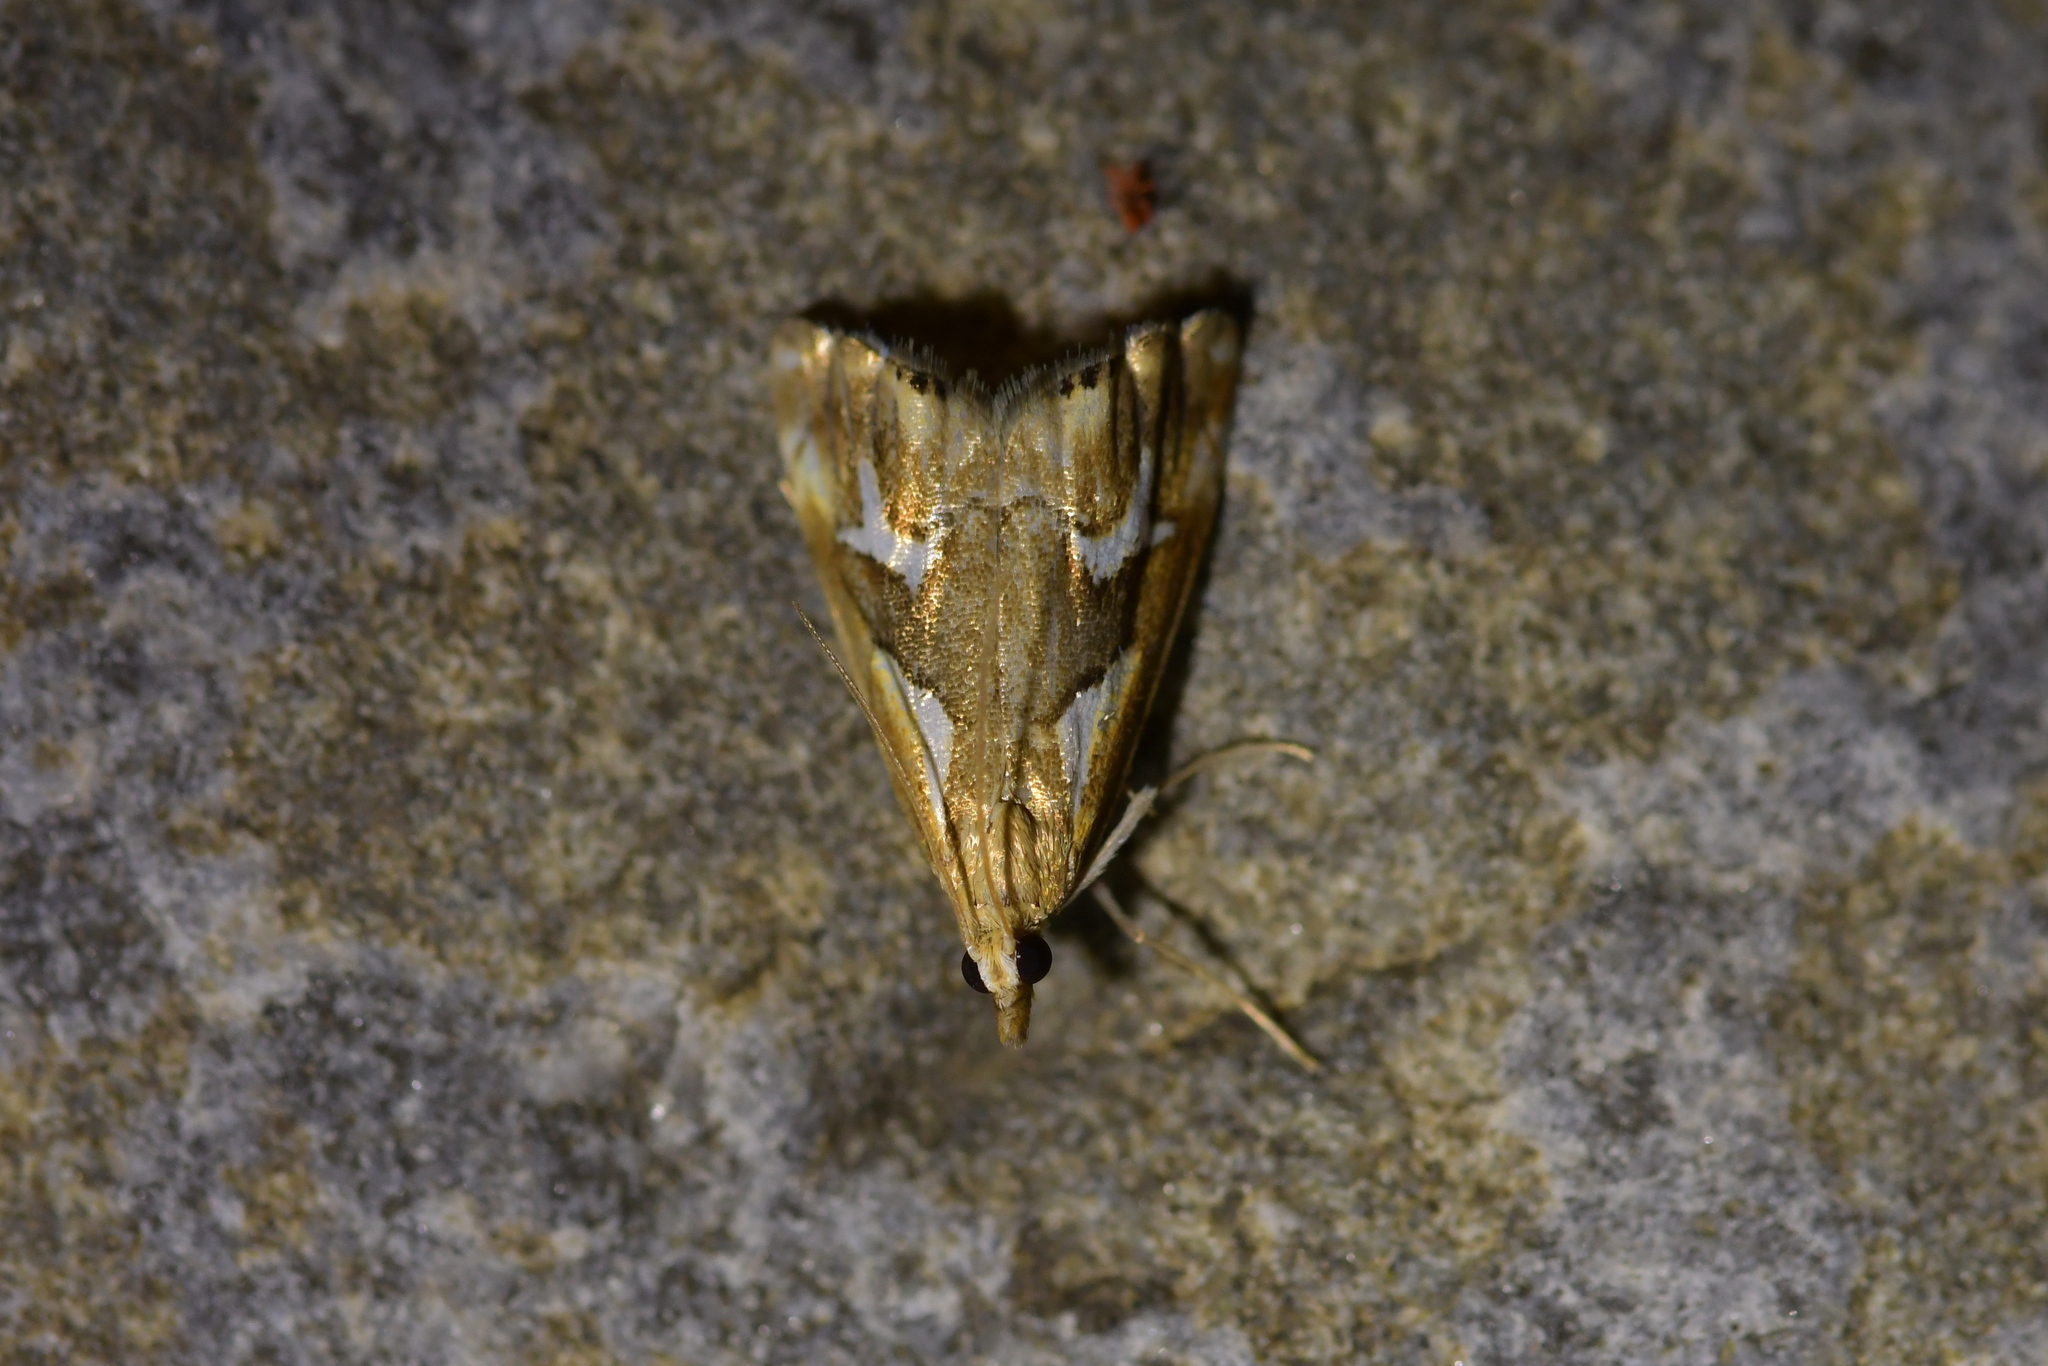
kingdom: Animalia
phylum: Arthropoda
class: Insecta
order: Lepidoptera
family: Crambidae
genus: Glaucocharis
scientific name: Glaucocharis interruptus
